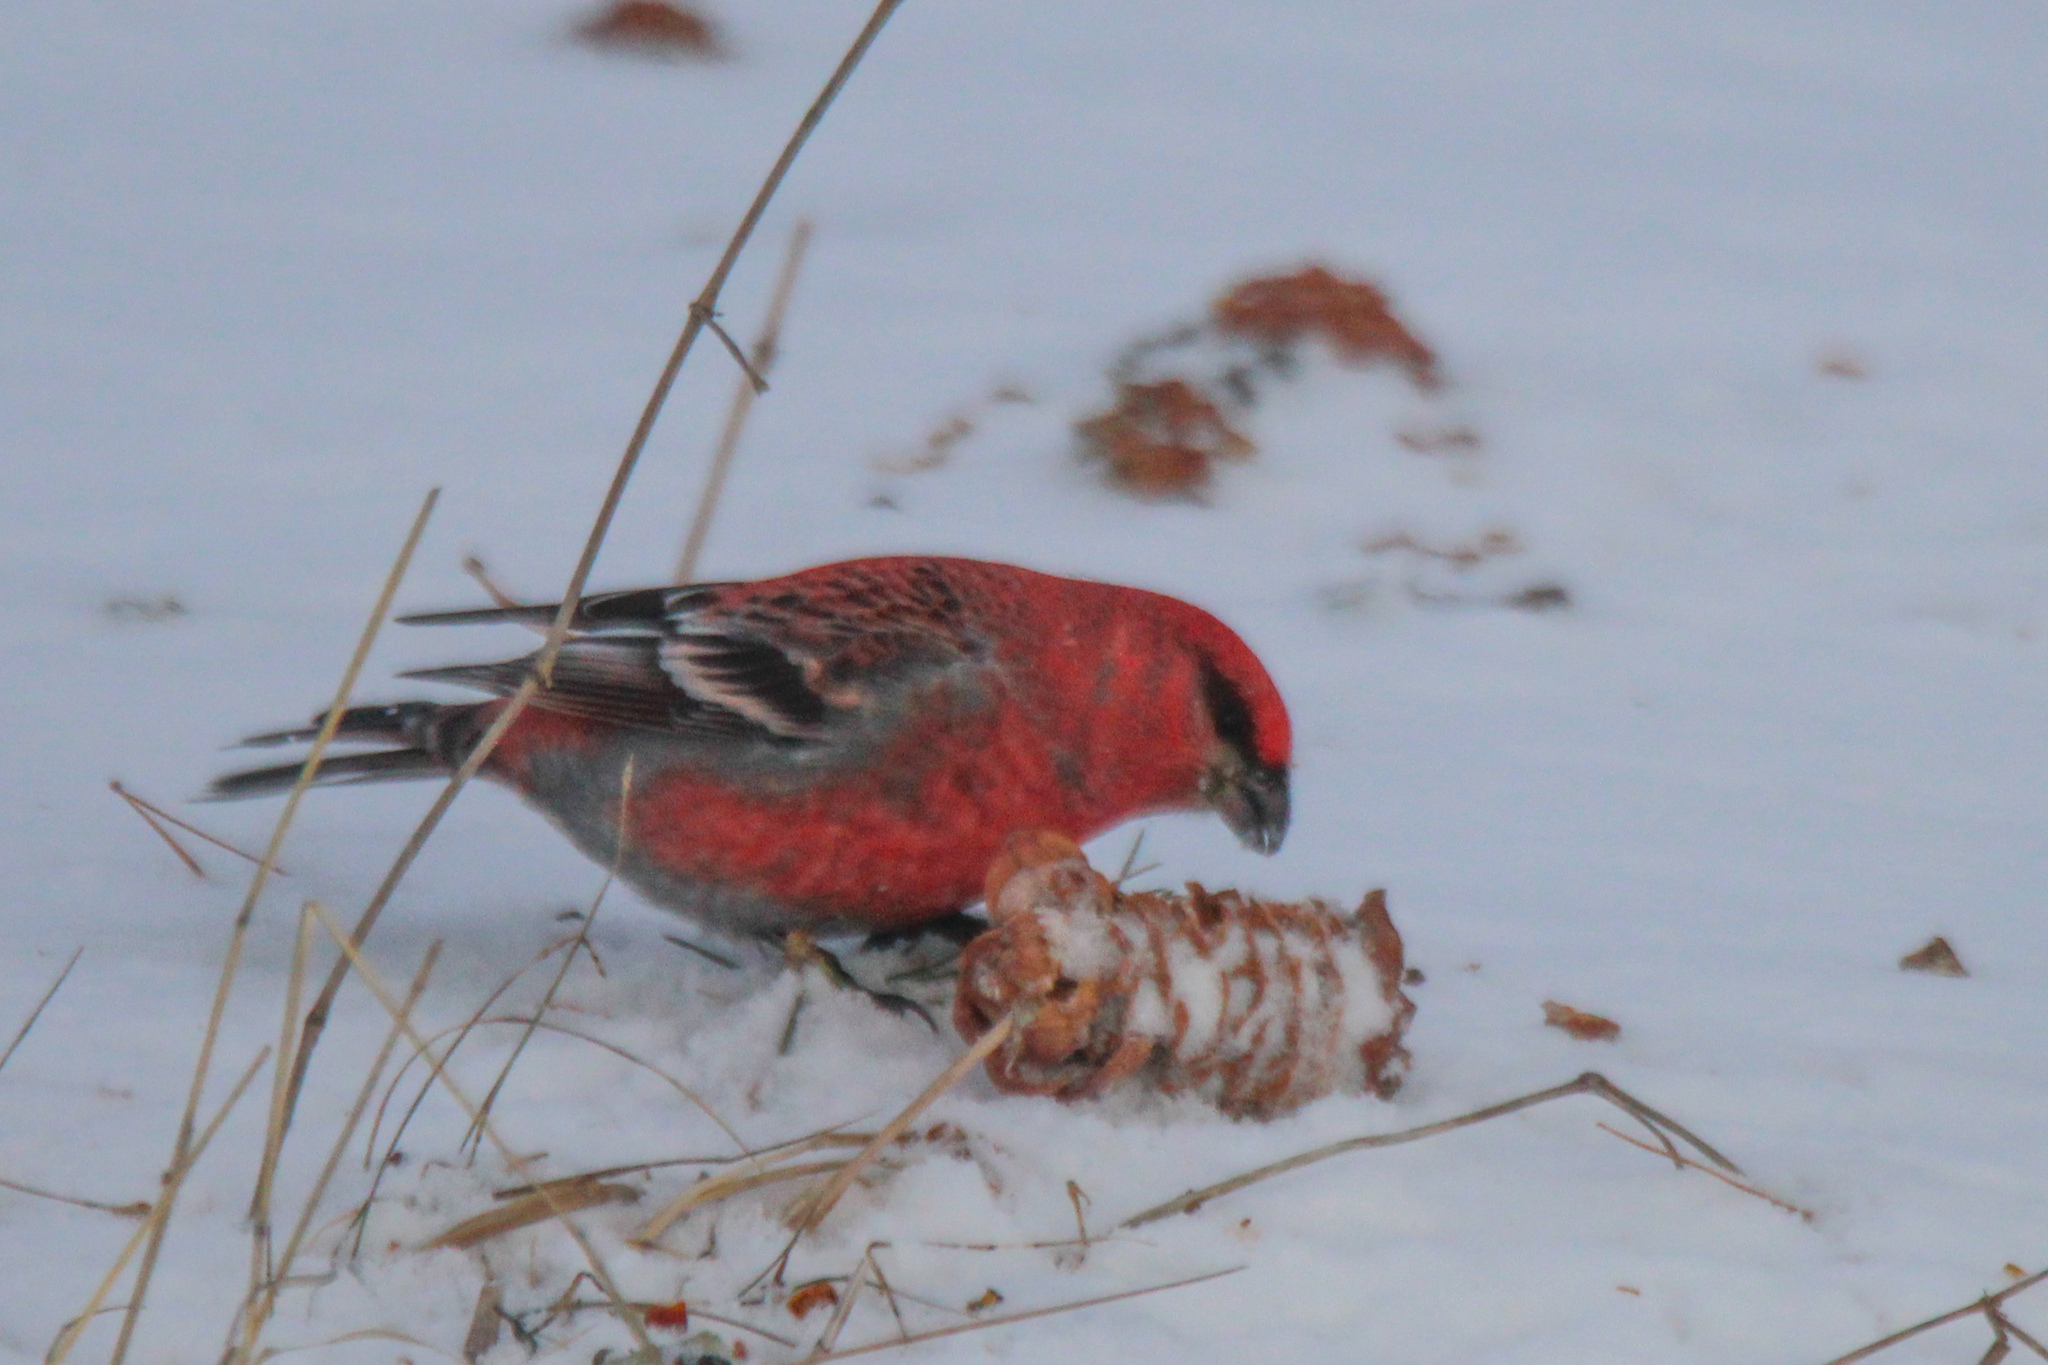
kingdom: Animalia
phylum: Chordata
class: Aves
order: Passeriformes
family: Fringillidae
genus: Pinicola
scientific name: Pinicola enucleator
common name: Pine grosbeak
